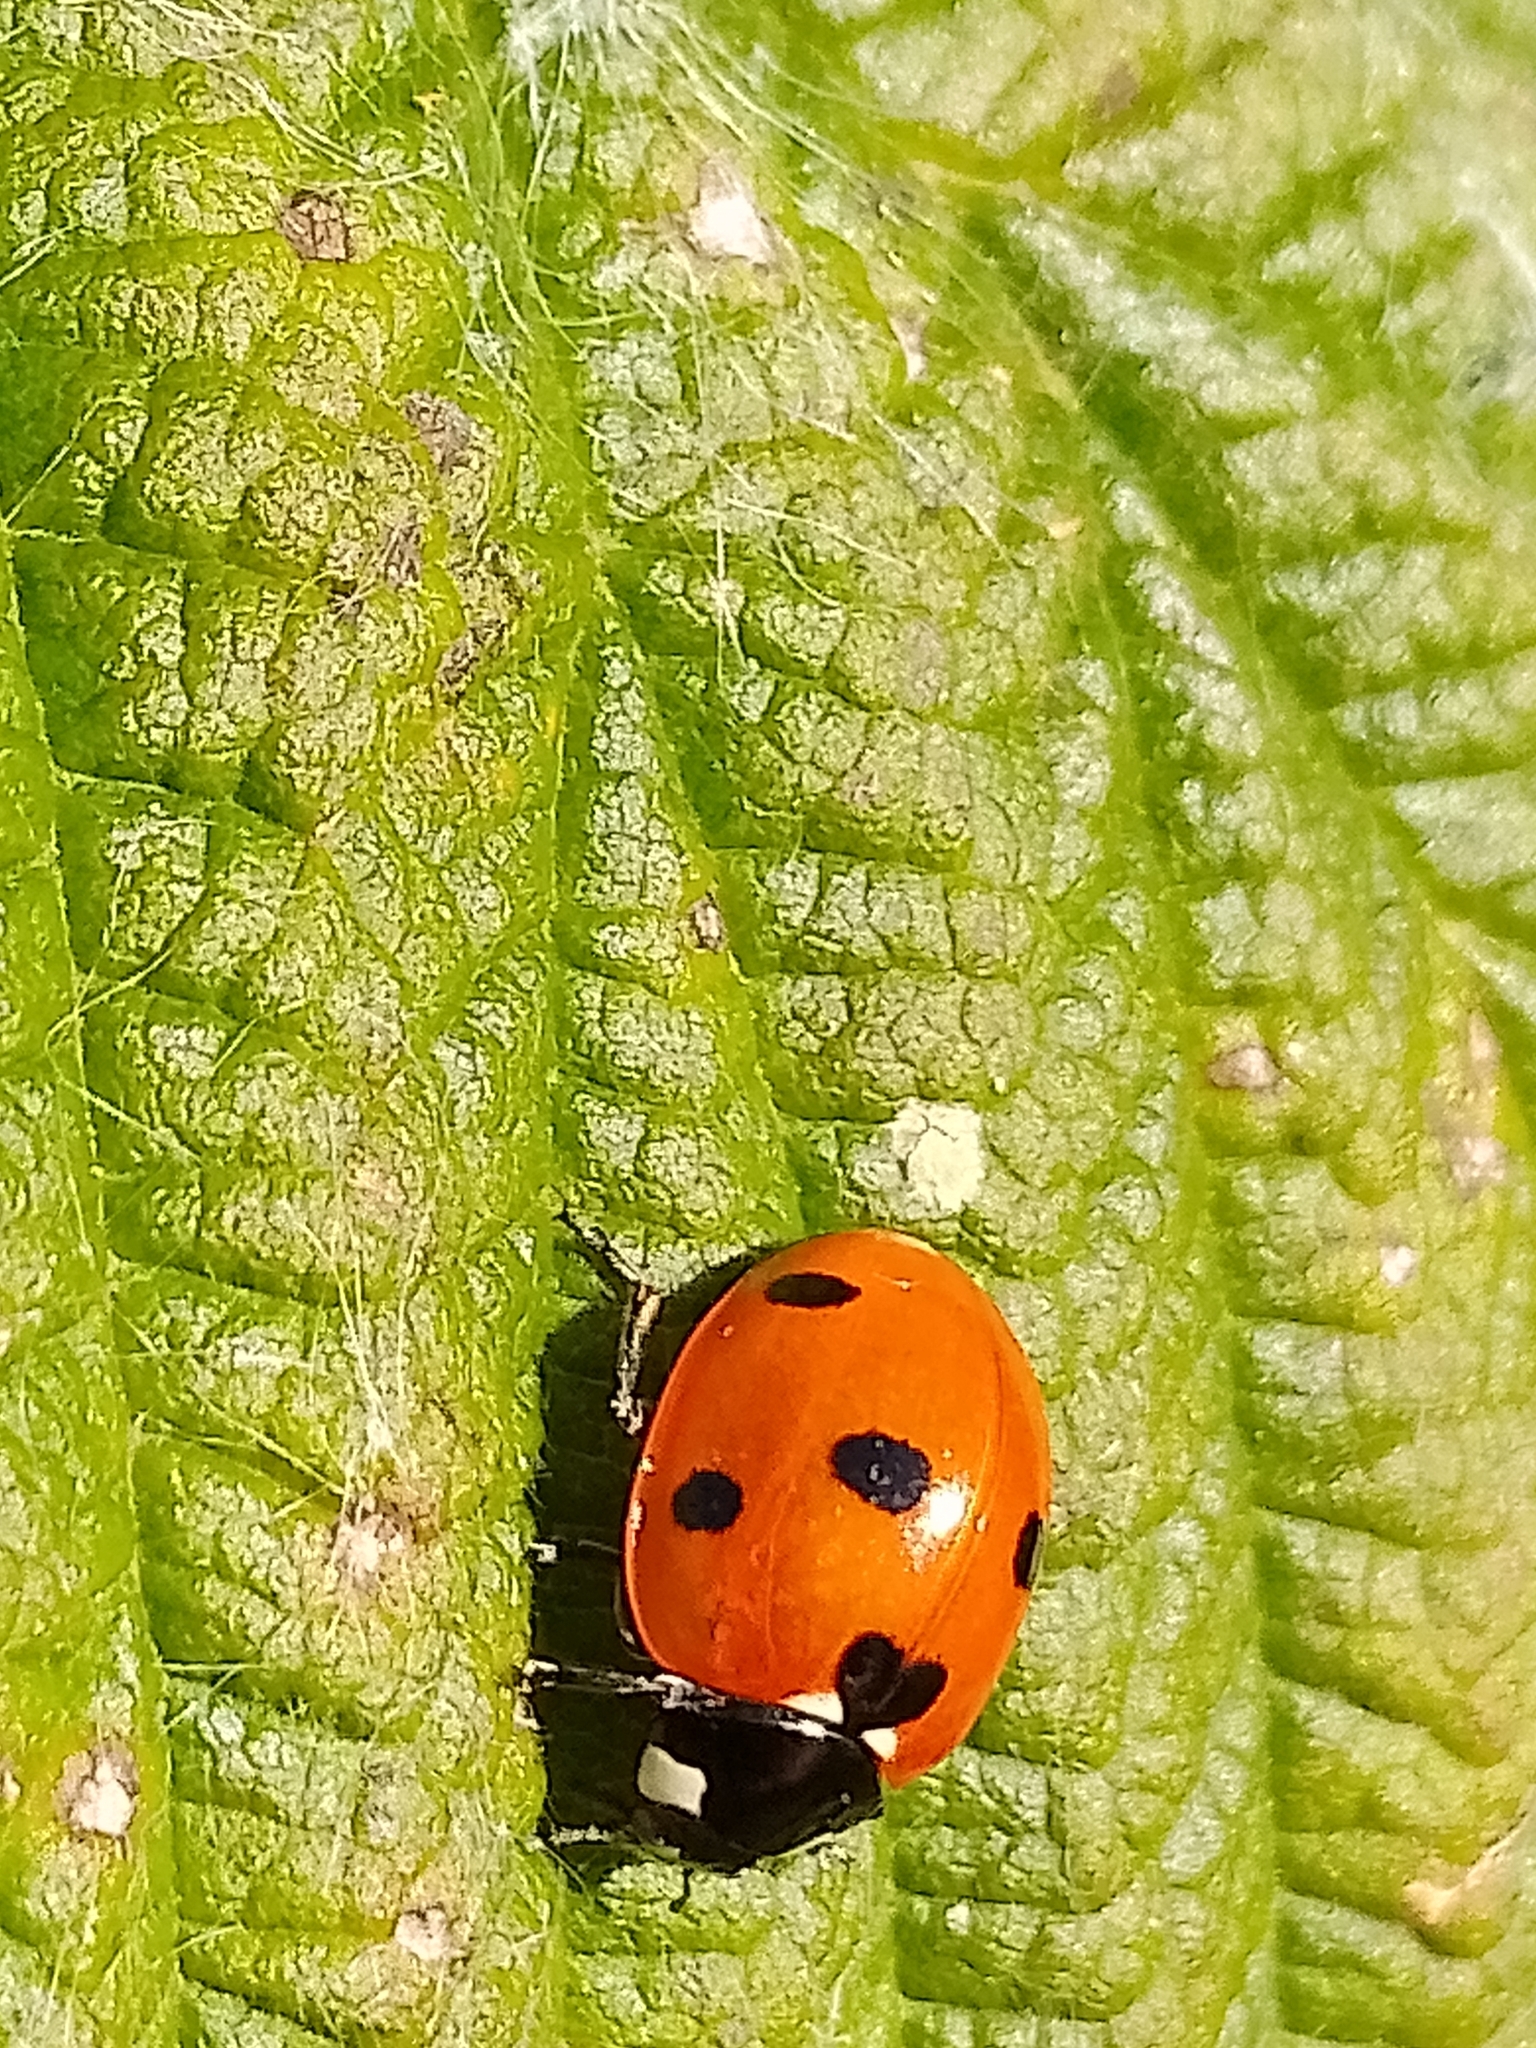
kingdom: Animalia
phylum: Arthropoda
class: Insecta
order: Coleoptera
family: Coccinellidae
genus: Coccinella
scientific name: Coccinella septempunctata
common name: Sevenspotted lady beetle
